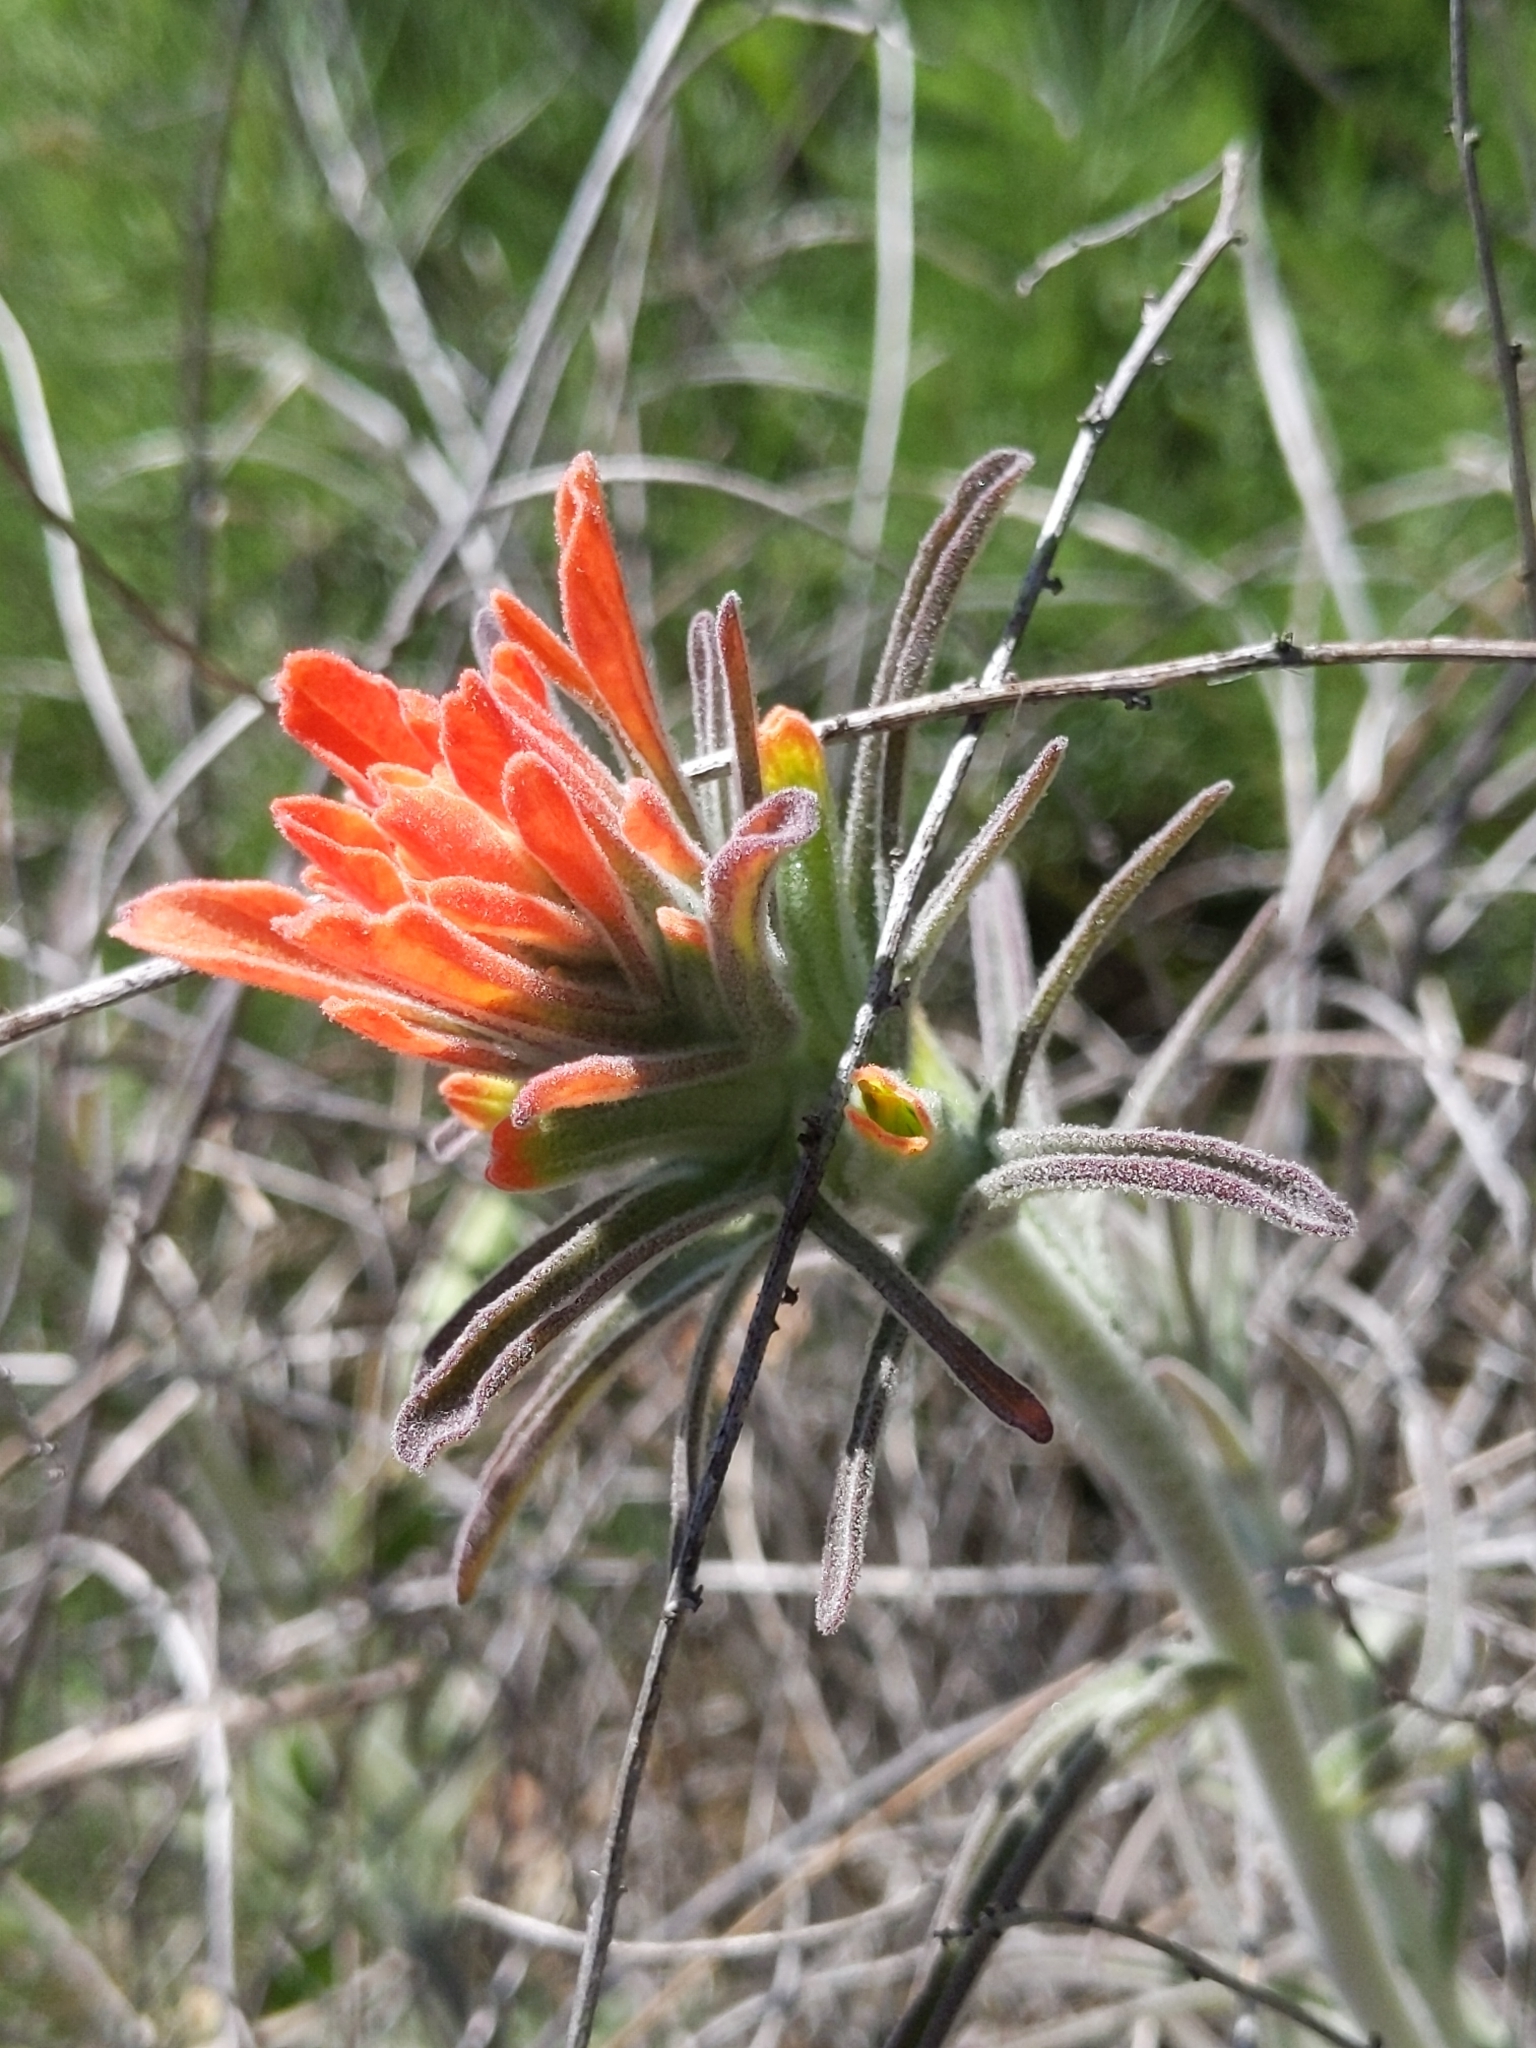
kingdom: Plantae
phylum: Tracheophyta
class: Magnoliopsida
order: Lamiales
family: Orobanchaceae
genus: Castilleja
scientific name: Castilleja foliolosa
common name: Woolly indian paintbrush
